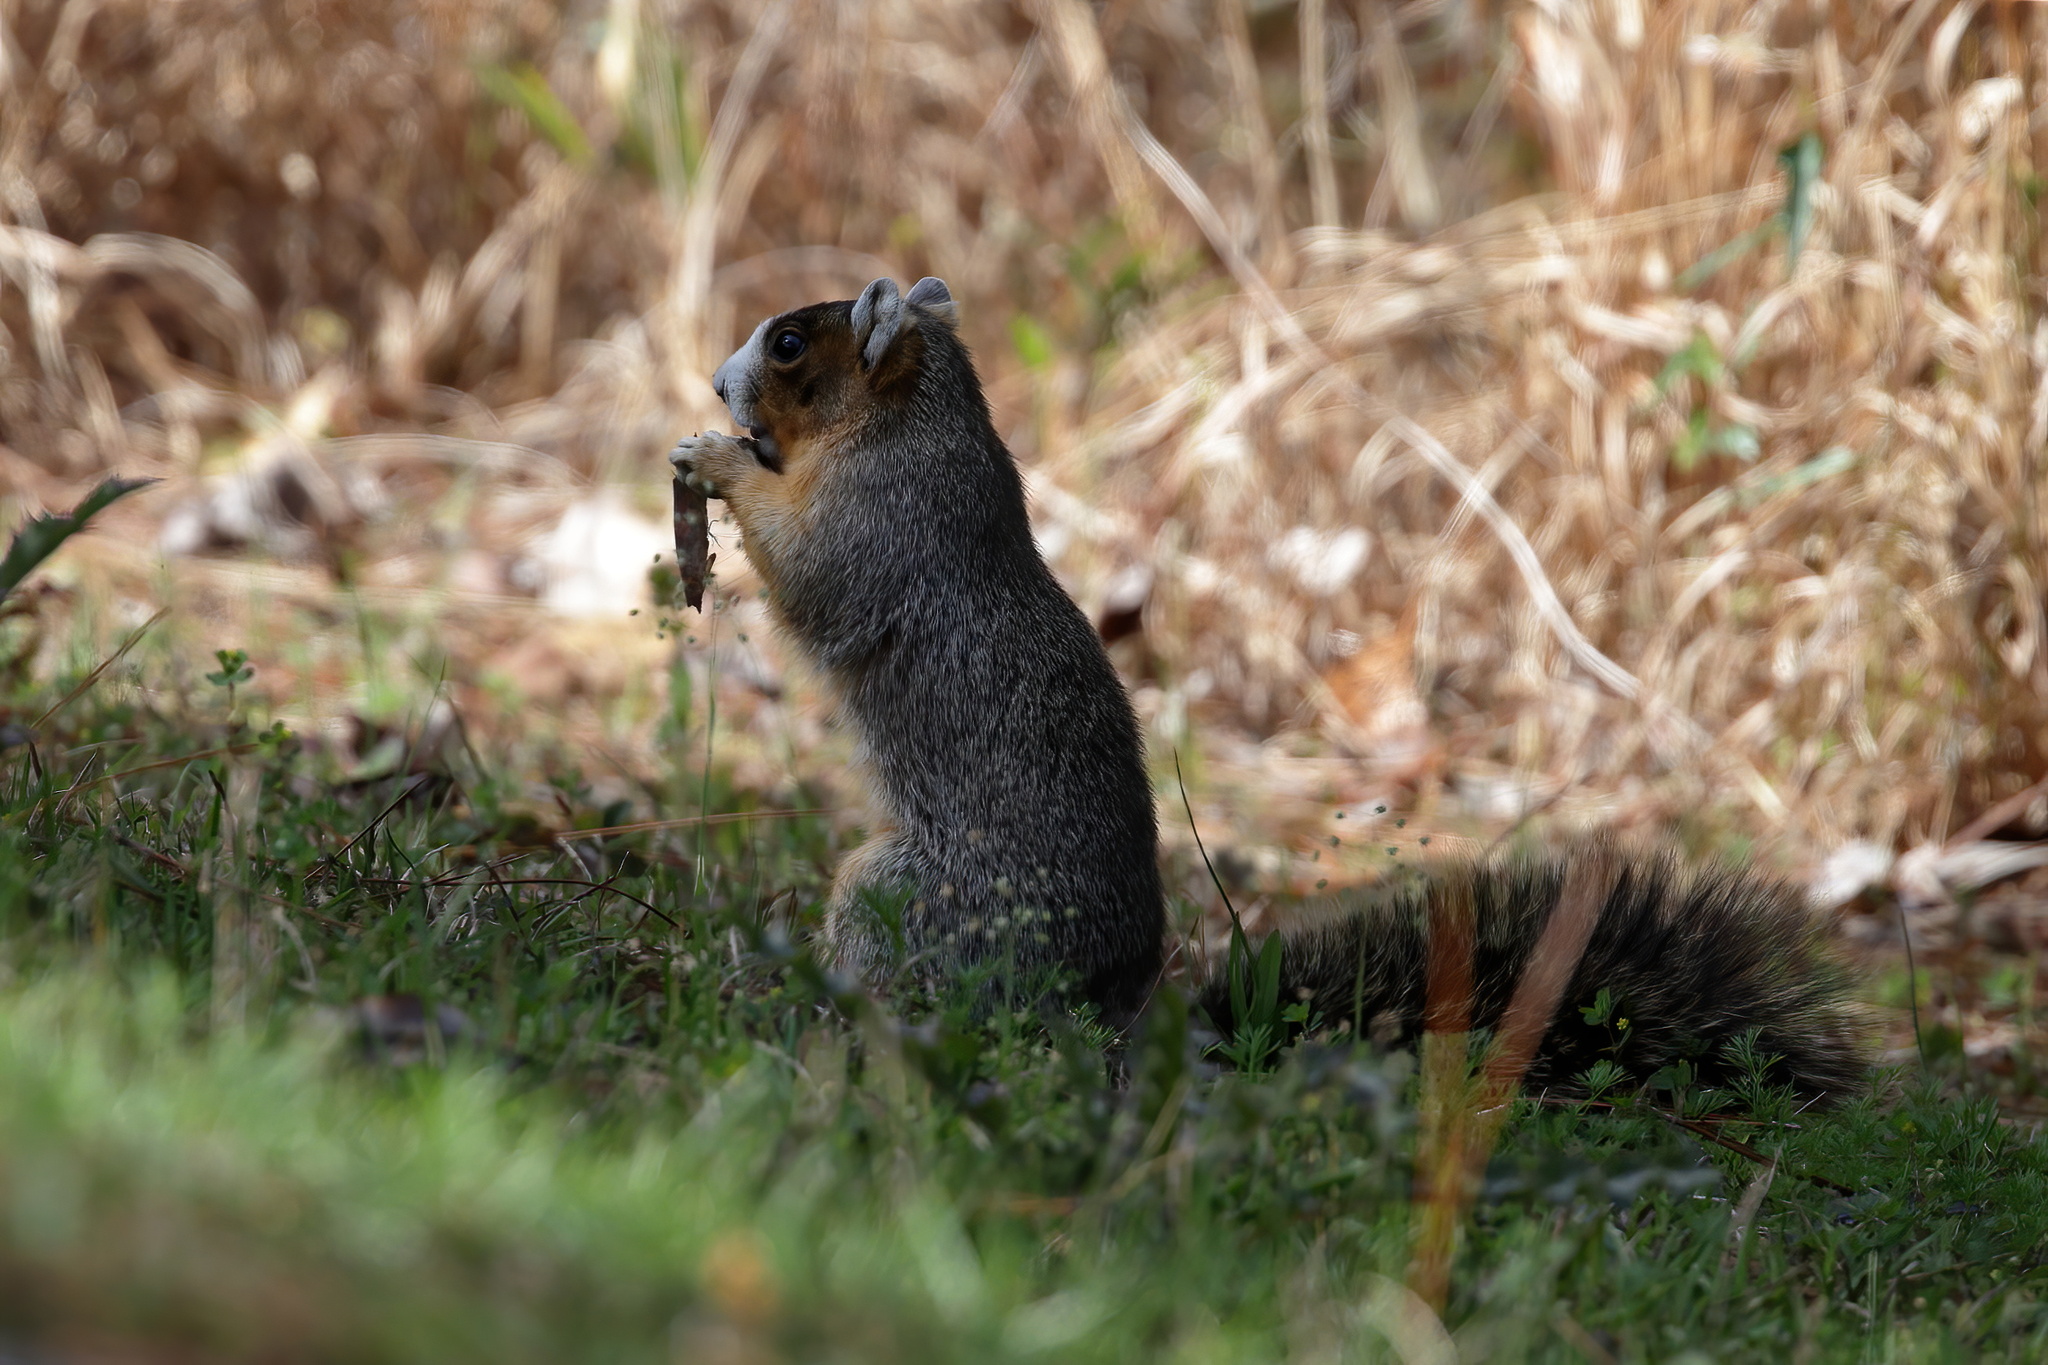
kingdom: Animalia
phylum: Chordata
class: Mammalia
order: Rodentia
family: Sciuridae
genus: Sciurus
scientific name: Sciurus niger
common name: Fox squirrel
